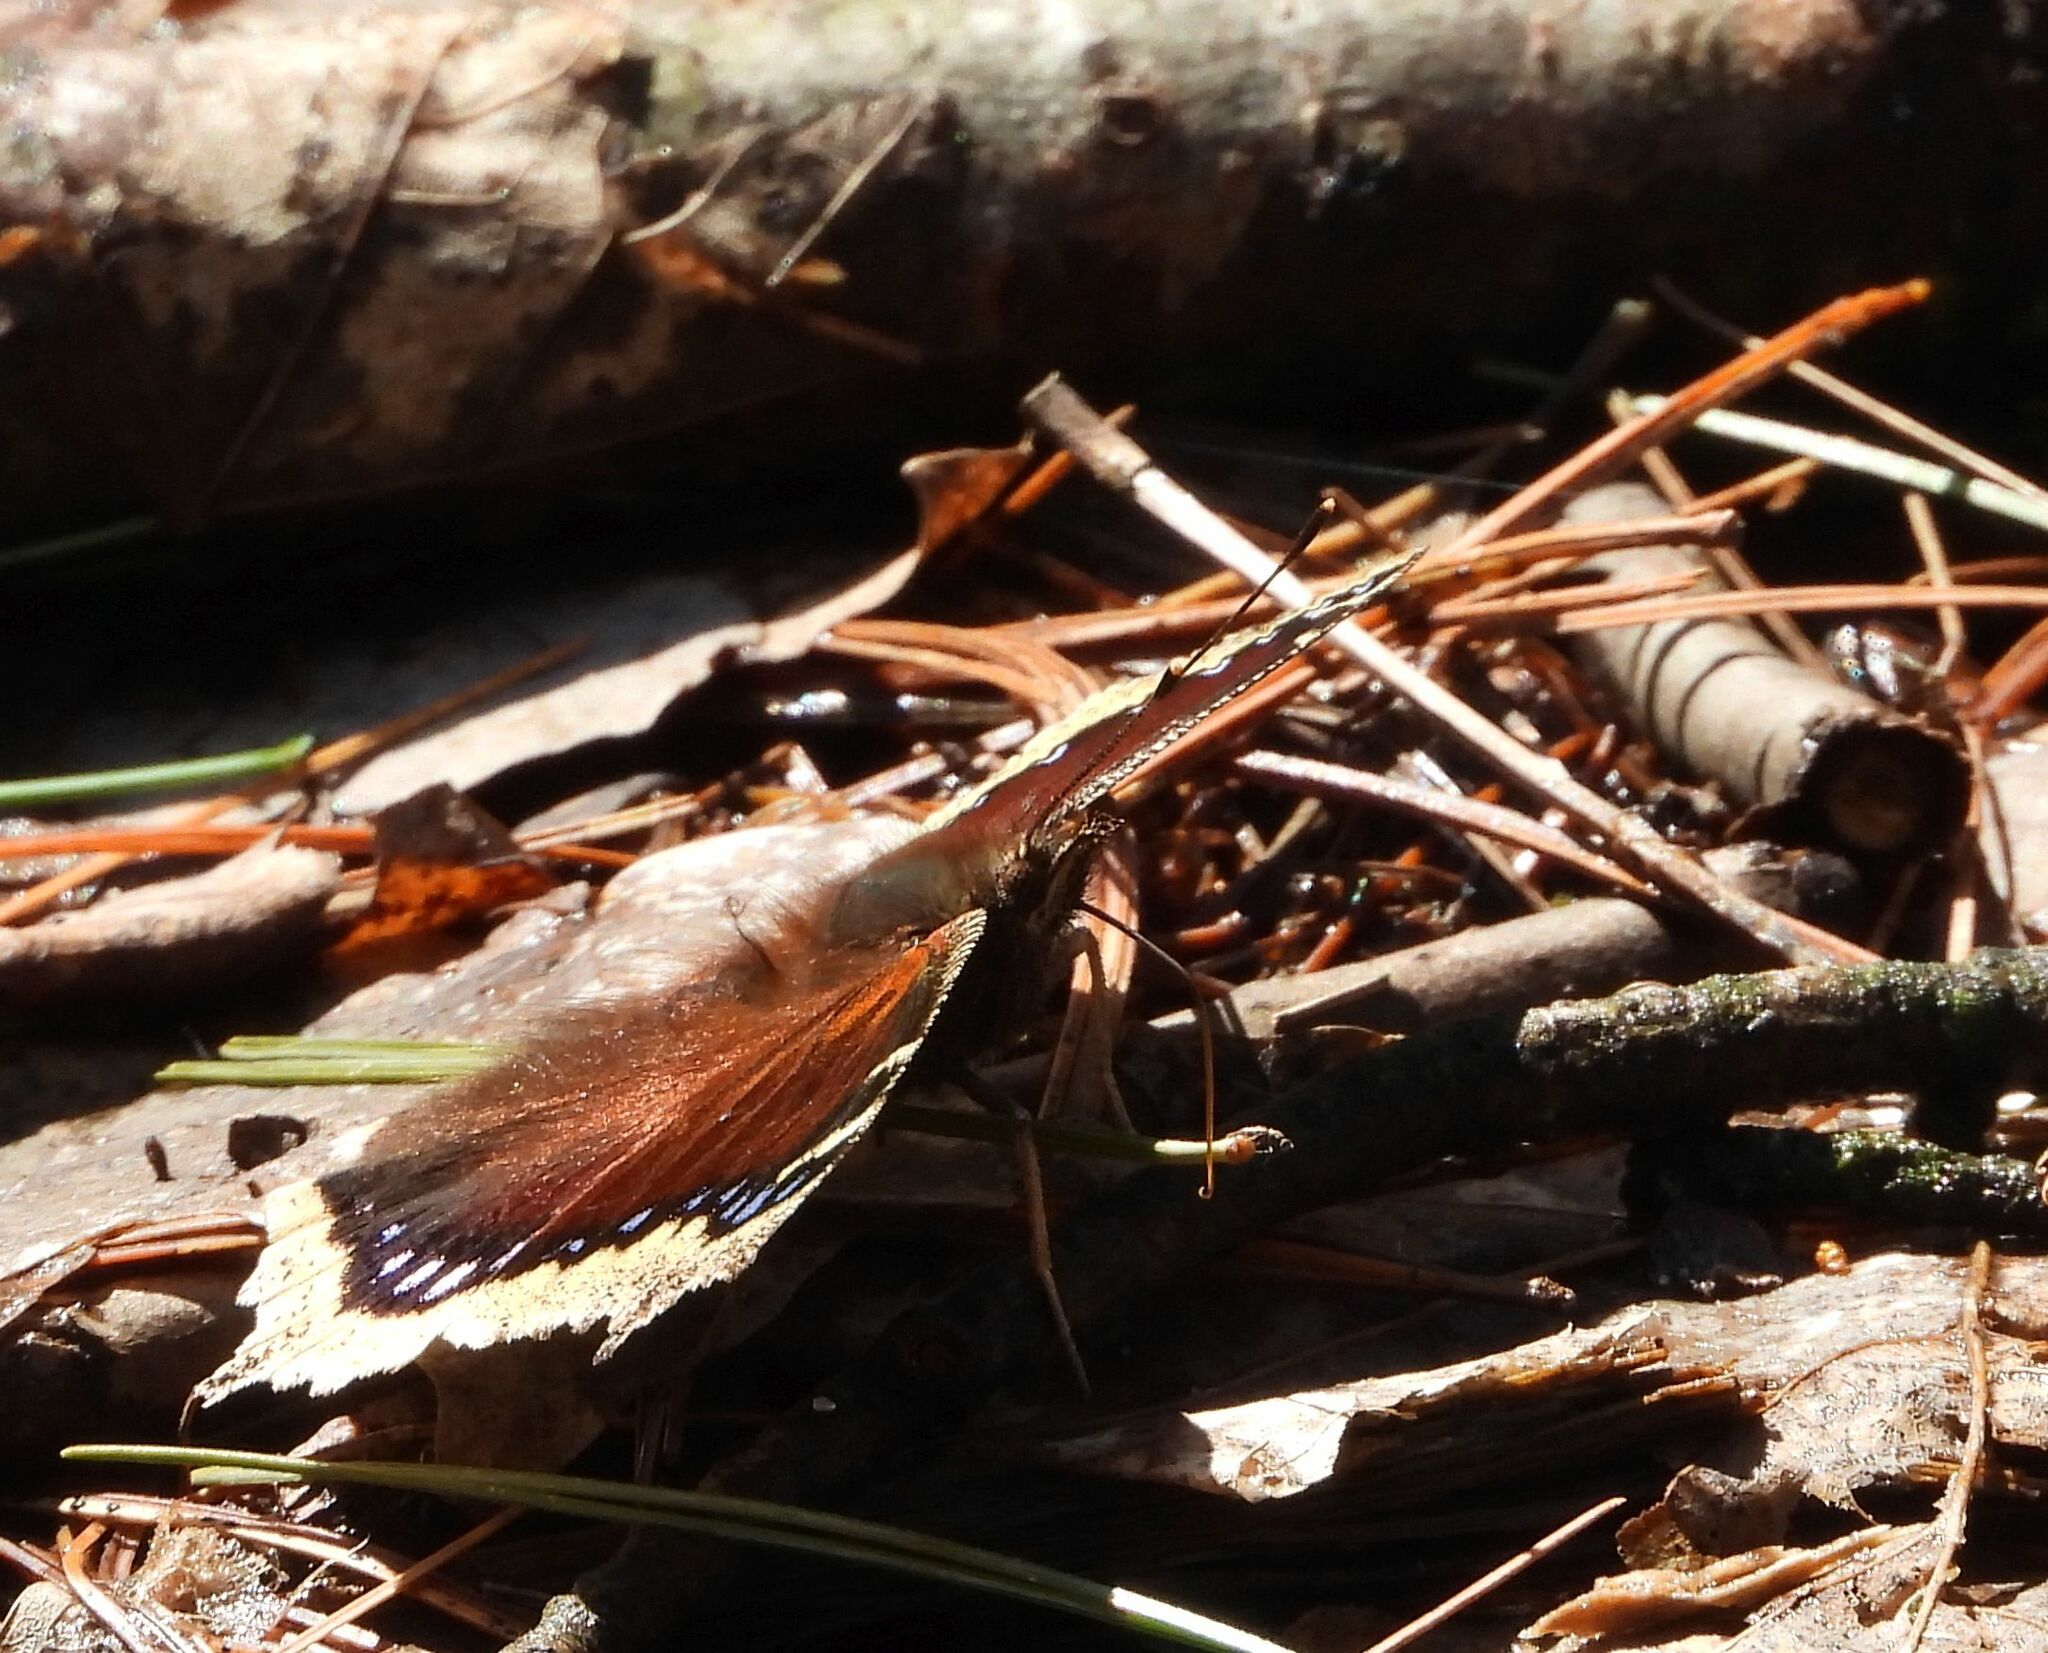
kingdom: Animalia
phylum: Arthropoda
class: Insecta
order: Lepidoptera
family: Nymphalidae
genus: Nymphalis
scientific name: Nymphalis antiopa
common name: Camberwell beauty
